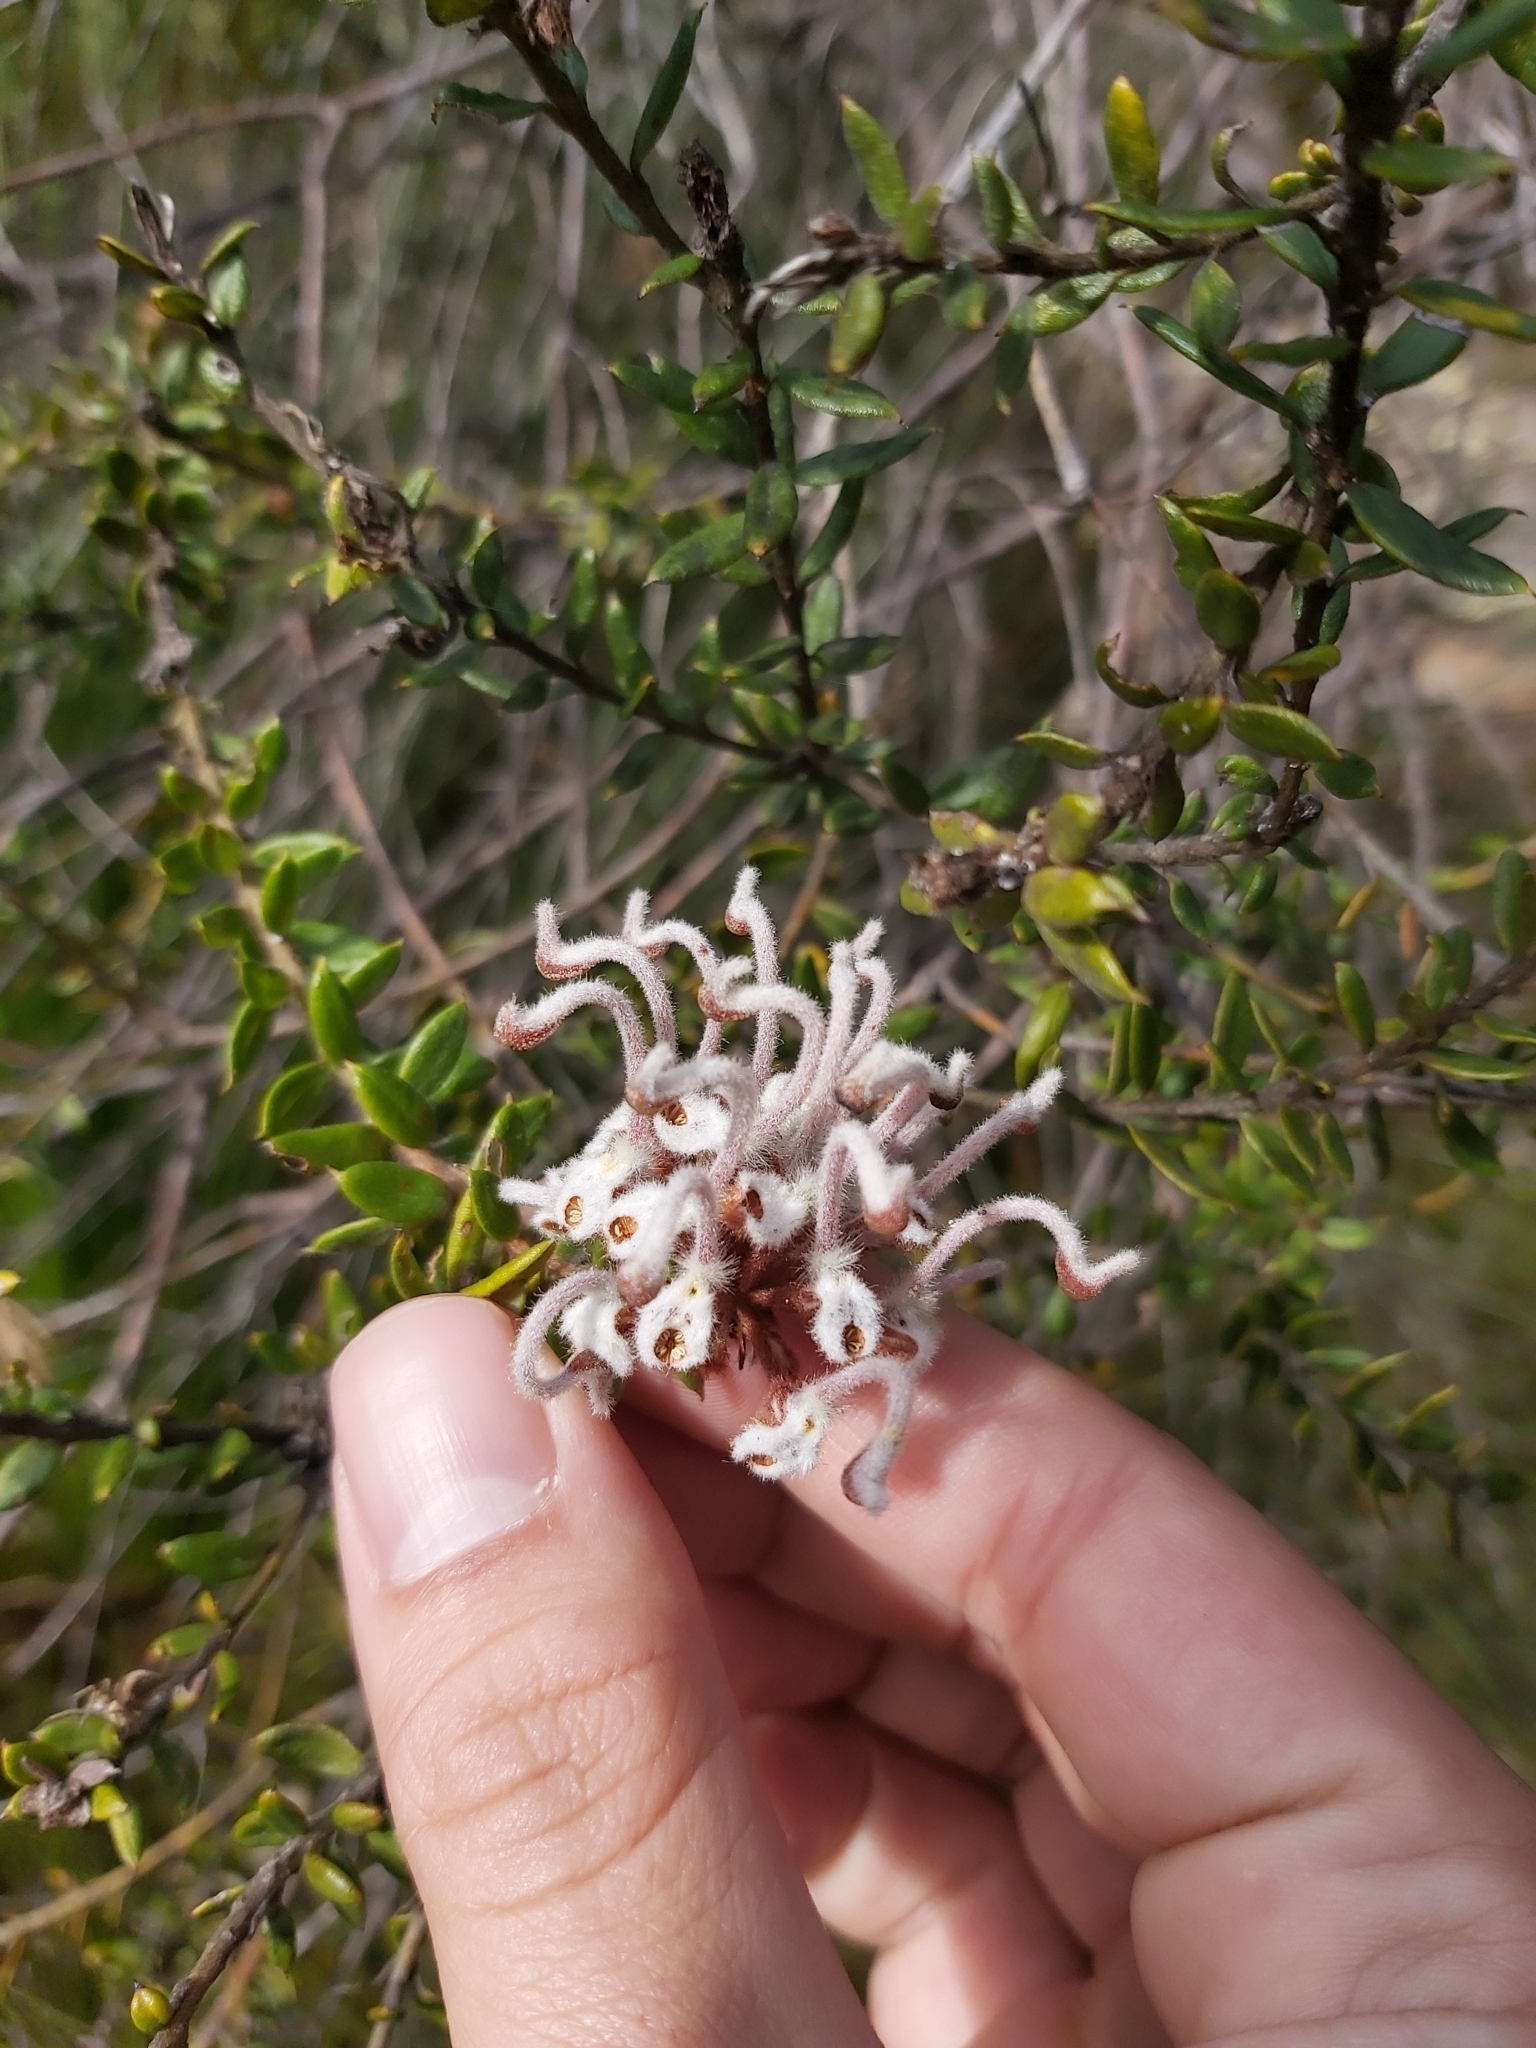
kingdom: Plantae
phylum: Tracheophyta
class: Magnoliopsida
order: Proteales
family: Proteaceae
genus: Grevillea
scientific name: Grevillea buxifolia
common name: Grey spiderflower
